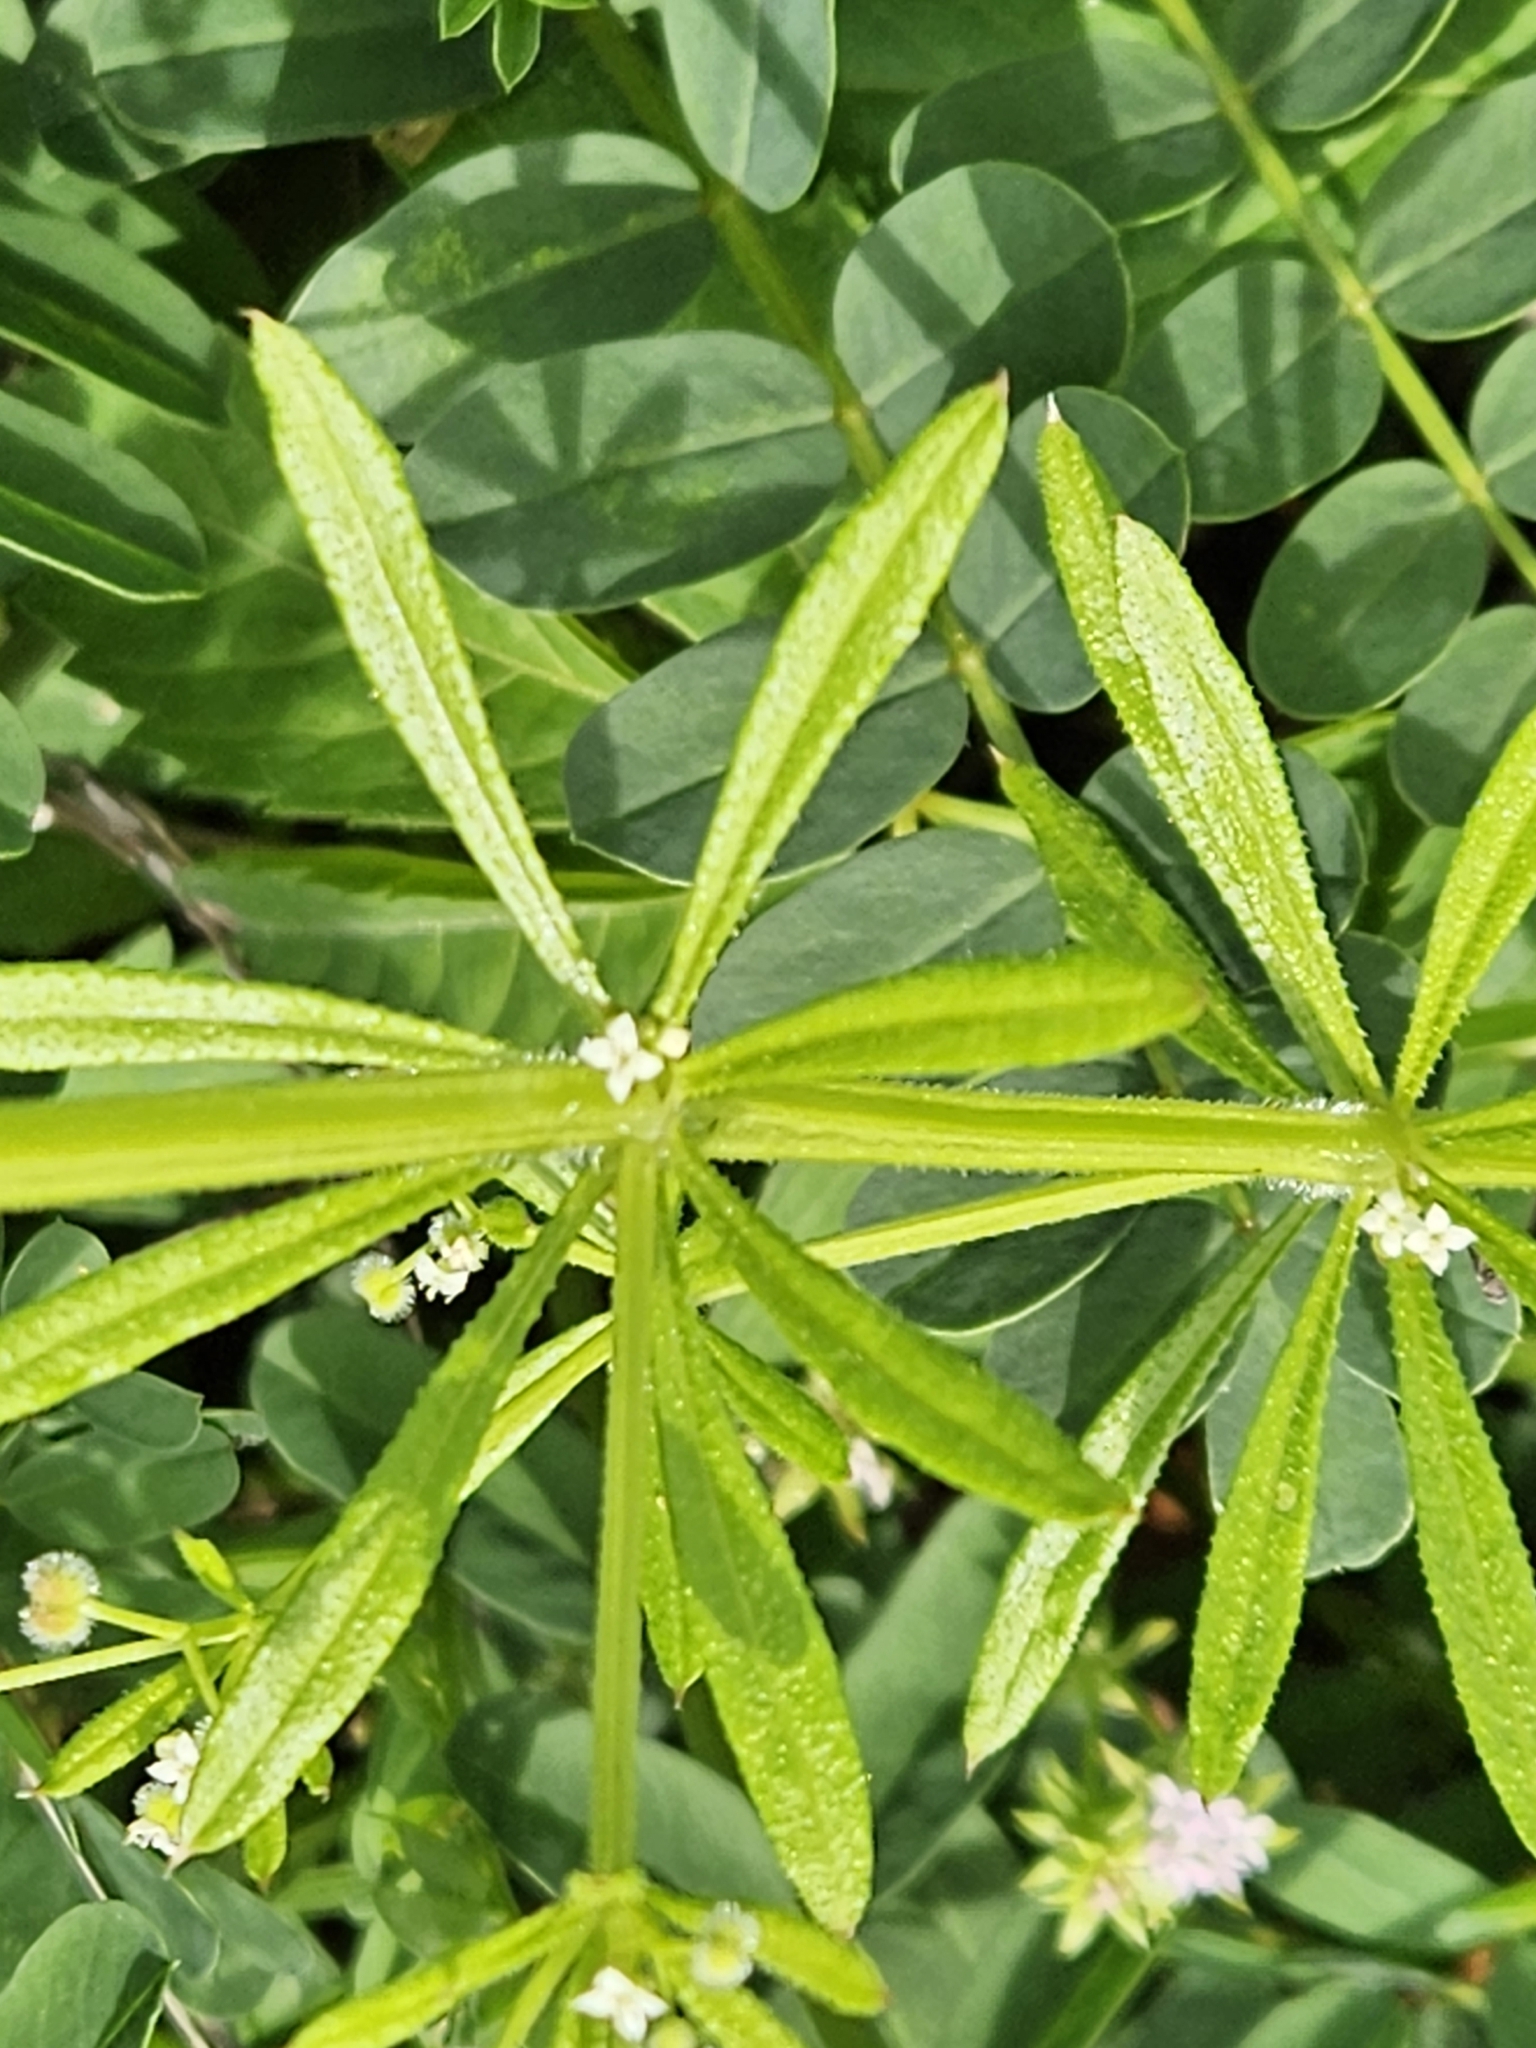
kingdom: Plantae
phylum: Tracheophyta
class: Magnoliopsida
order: Gentianales
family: Rubiaceae
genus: Galium
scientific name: Galium aparine
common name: Cleavers
